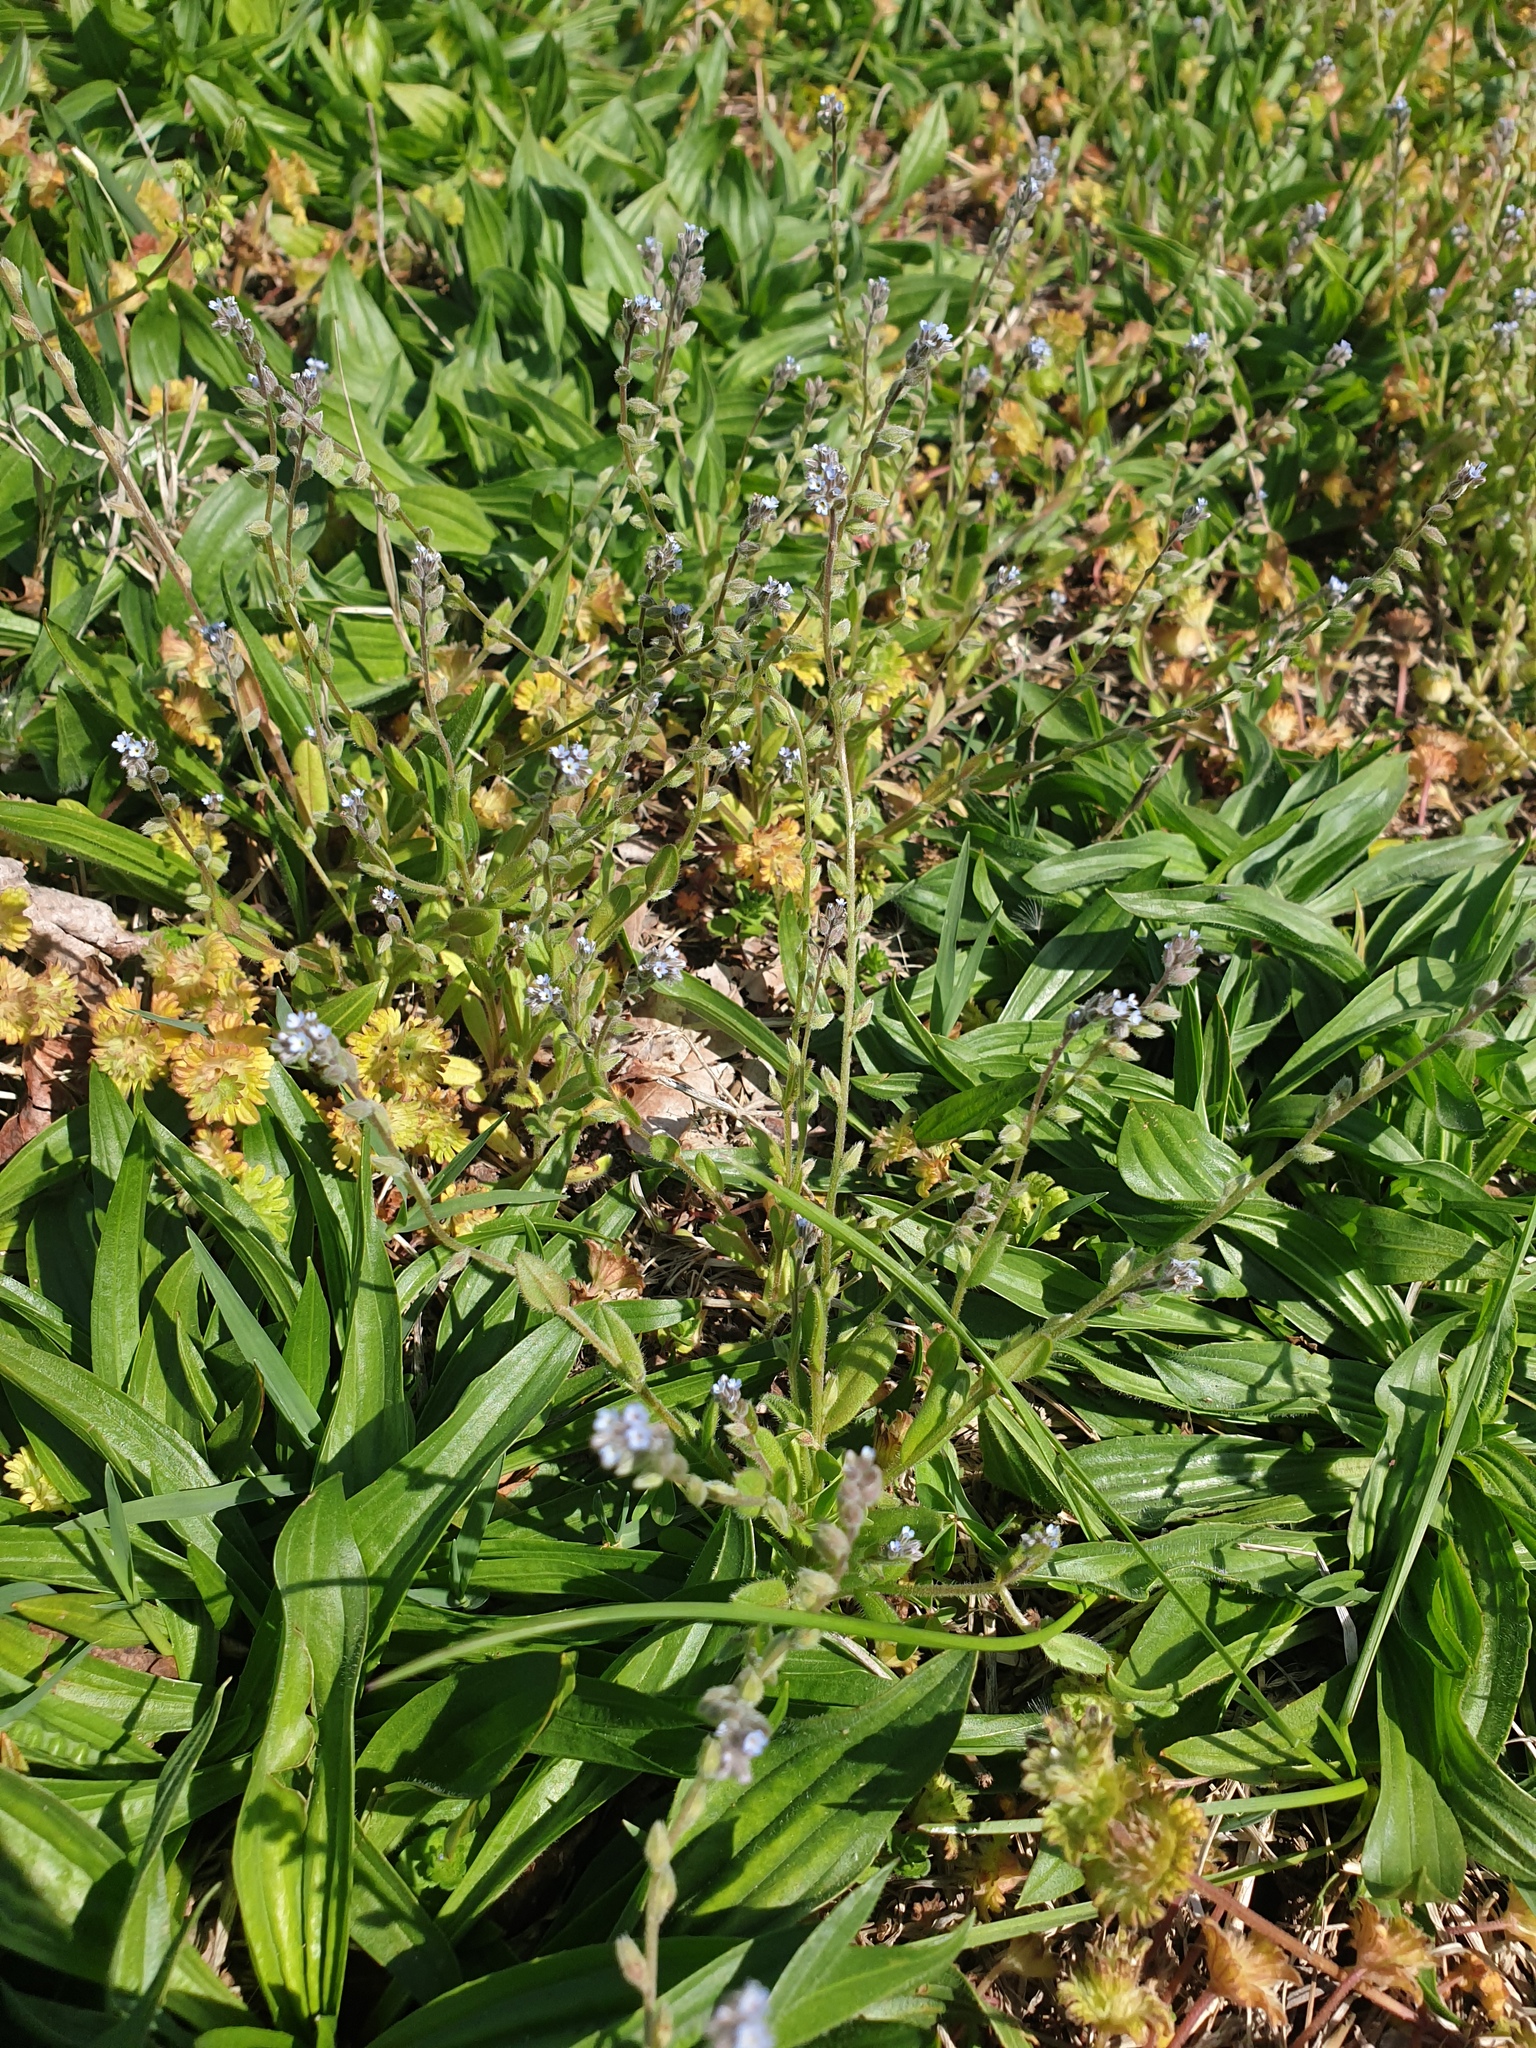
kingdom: Plantae
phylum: Tracheophyta
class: Magnoliopsida
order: Lamiales
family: Plantaginaceae
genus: Plantago
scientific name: Plantago lanceolata
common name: Ribwort plantain
